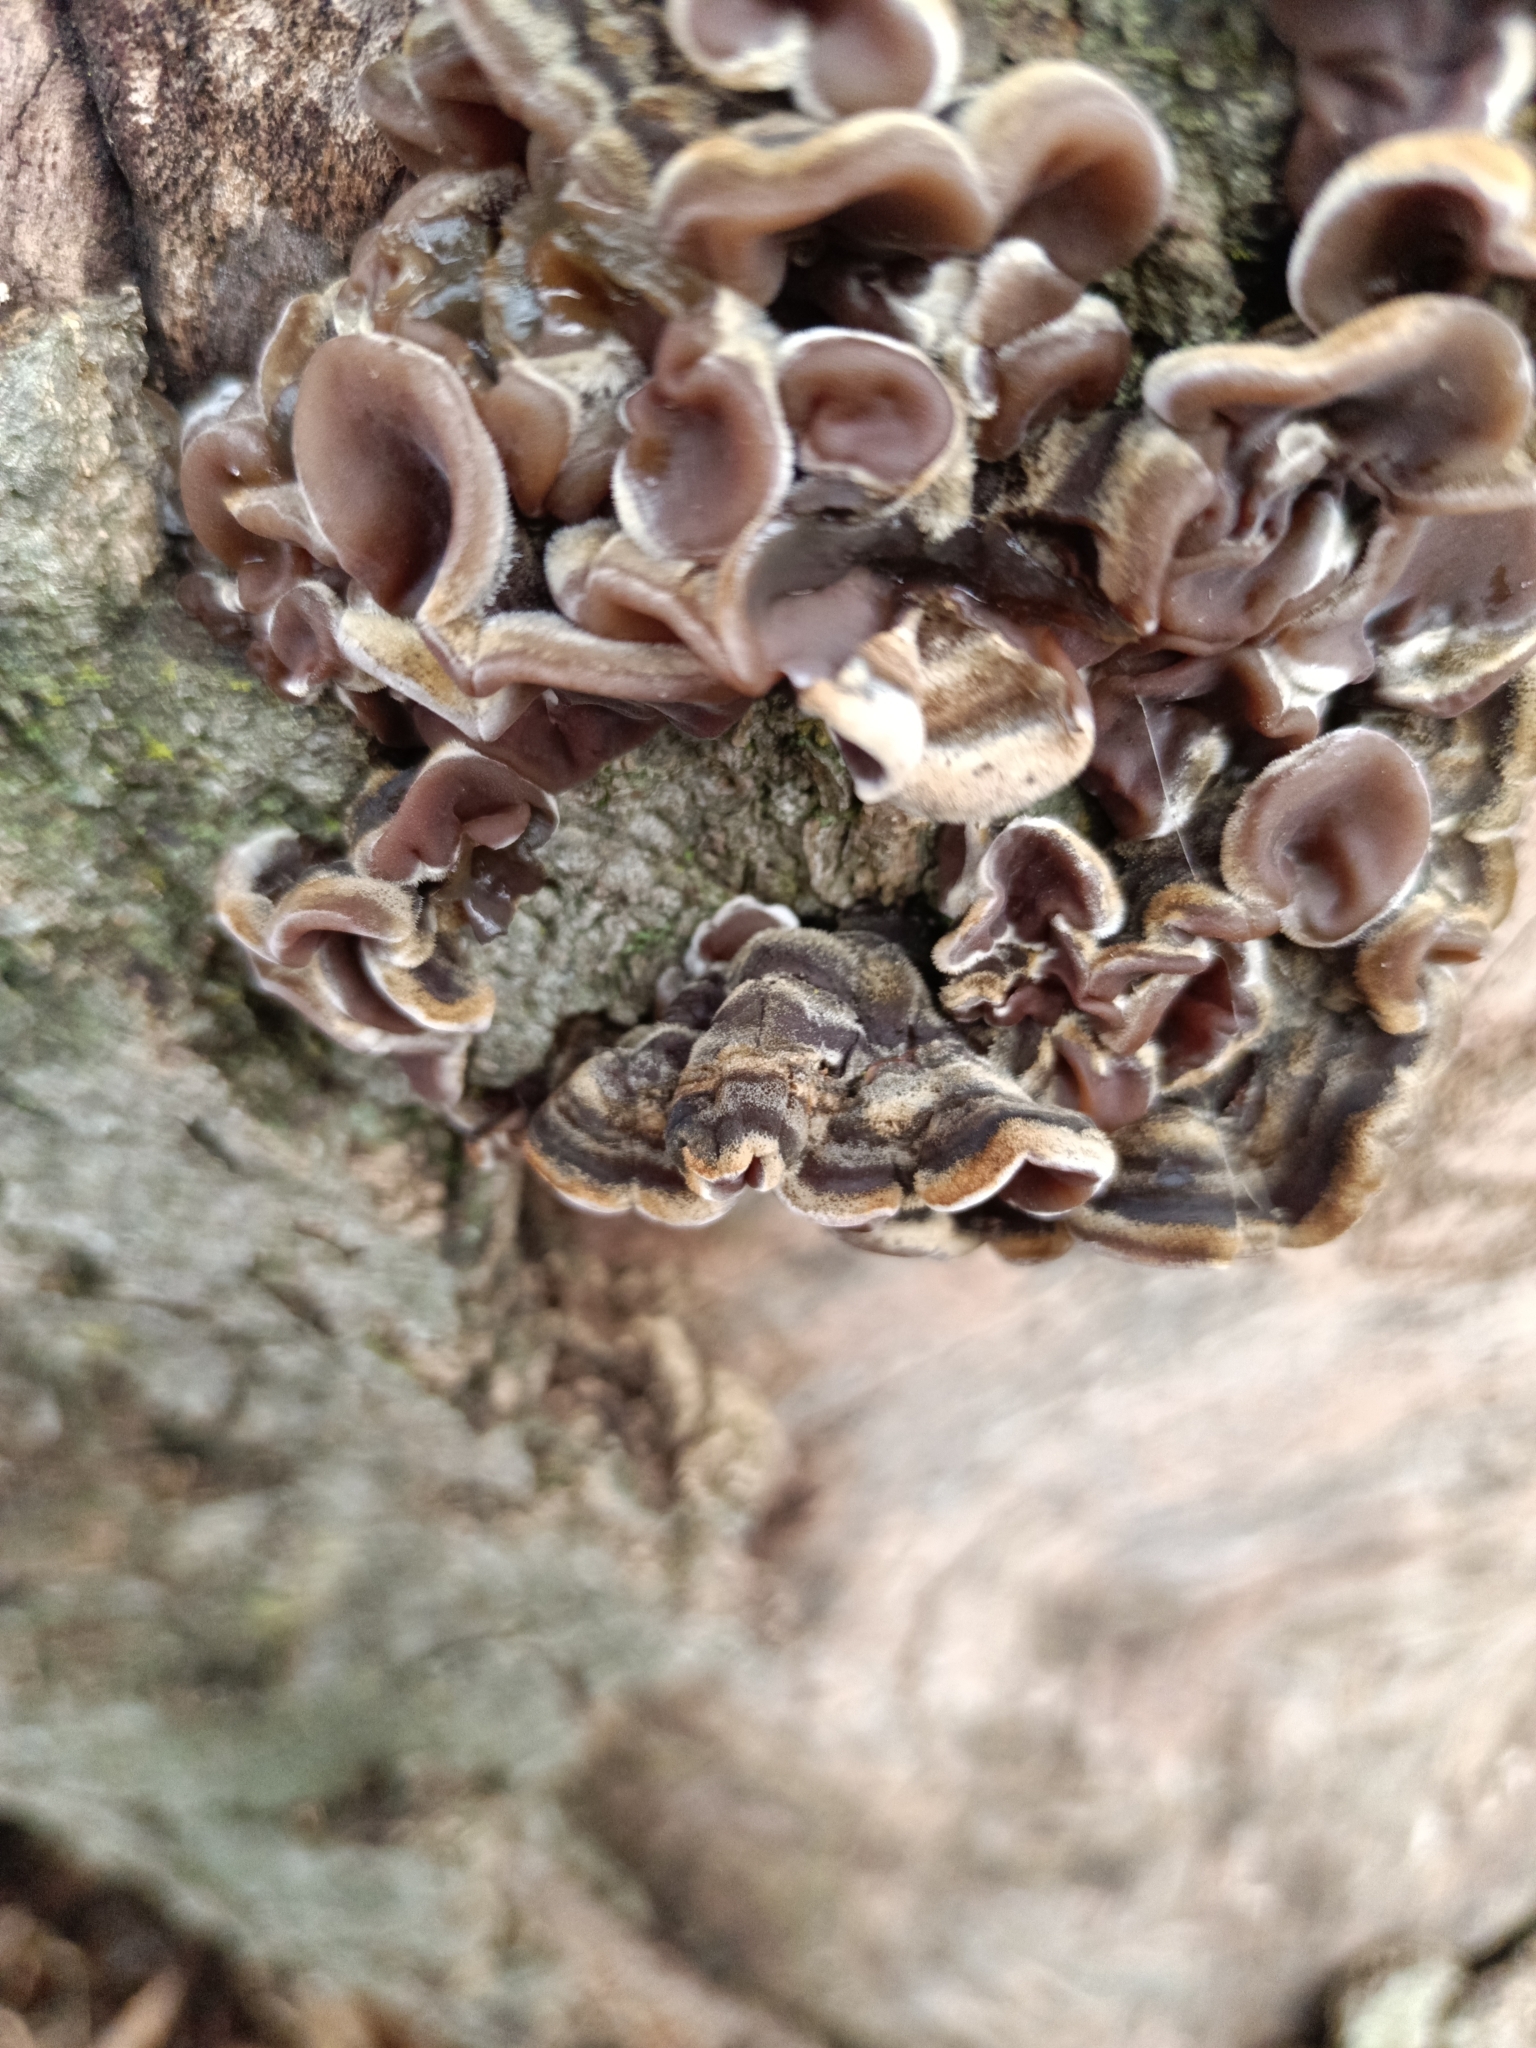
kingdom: Fungi
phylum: Basidiomycota
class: Agaricomycetes
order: Auriculariales
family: Auriculariaceae
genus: Auricularia
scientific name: Auricularia mesenterica
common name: Tripe fungus
